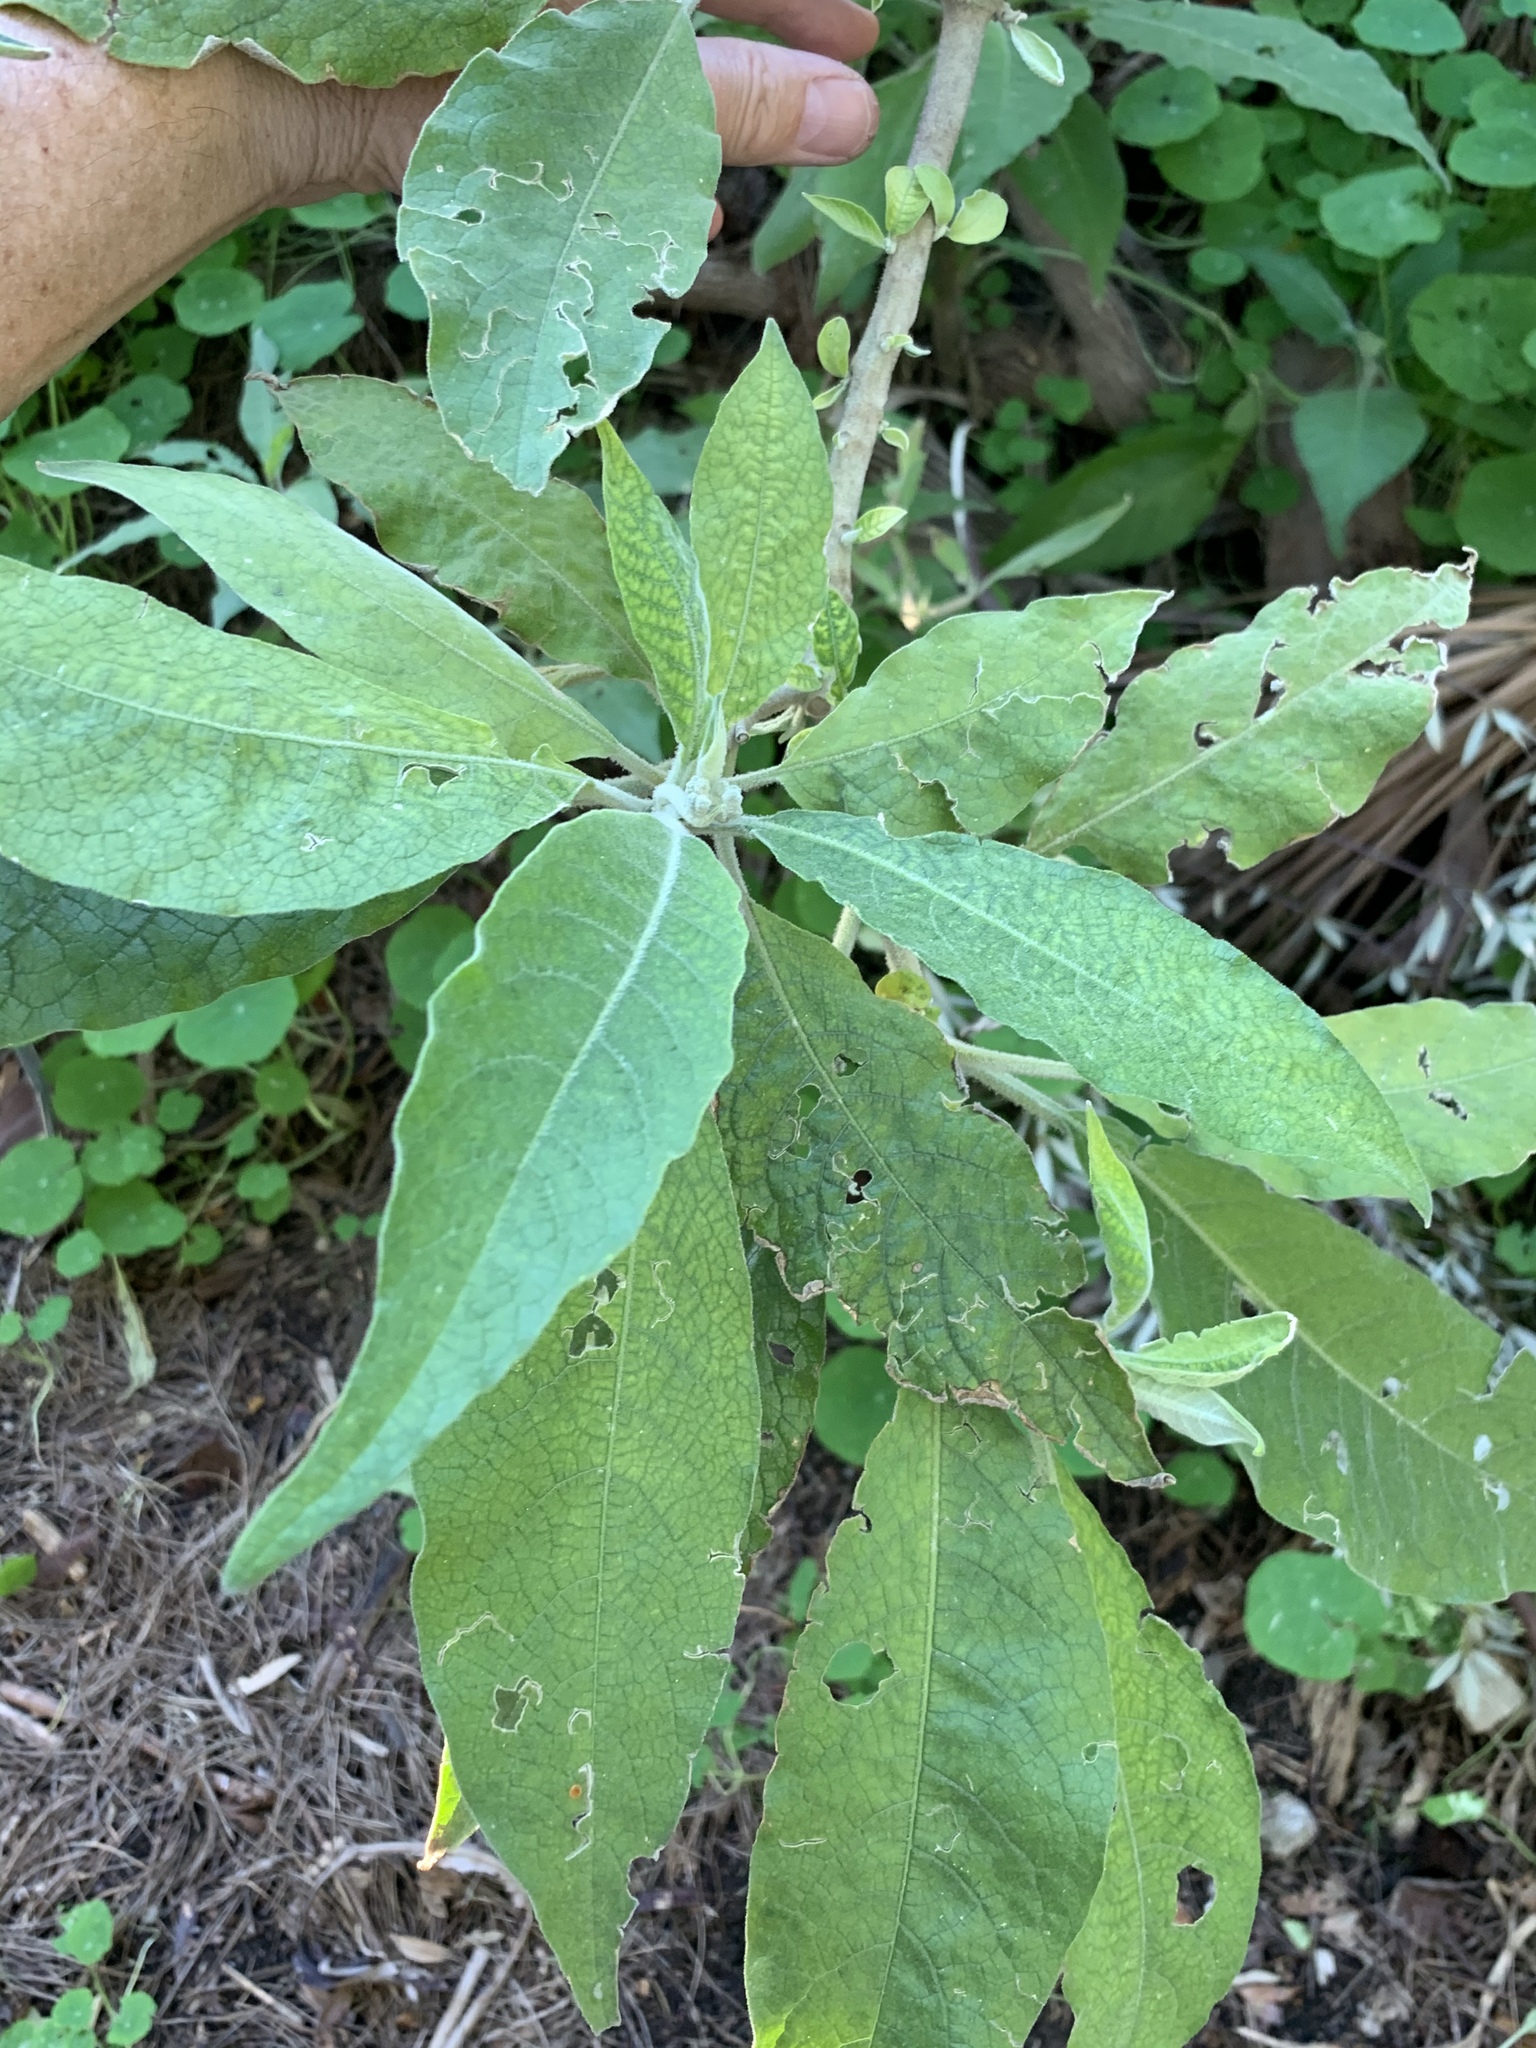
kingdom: Plantae
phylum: Tracheophyta
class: Magnoliopsida
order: Solanales
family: Solanaceae
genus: Solanum
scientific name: Solanum mauritianum
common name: Earleaf nightshade
